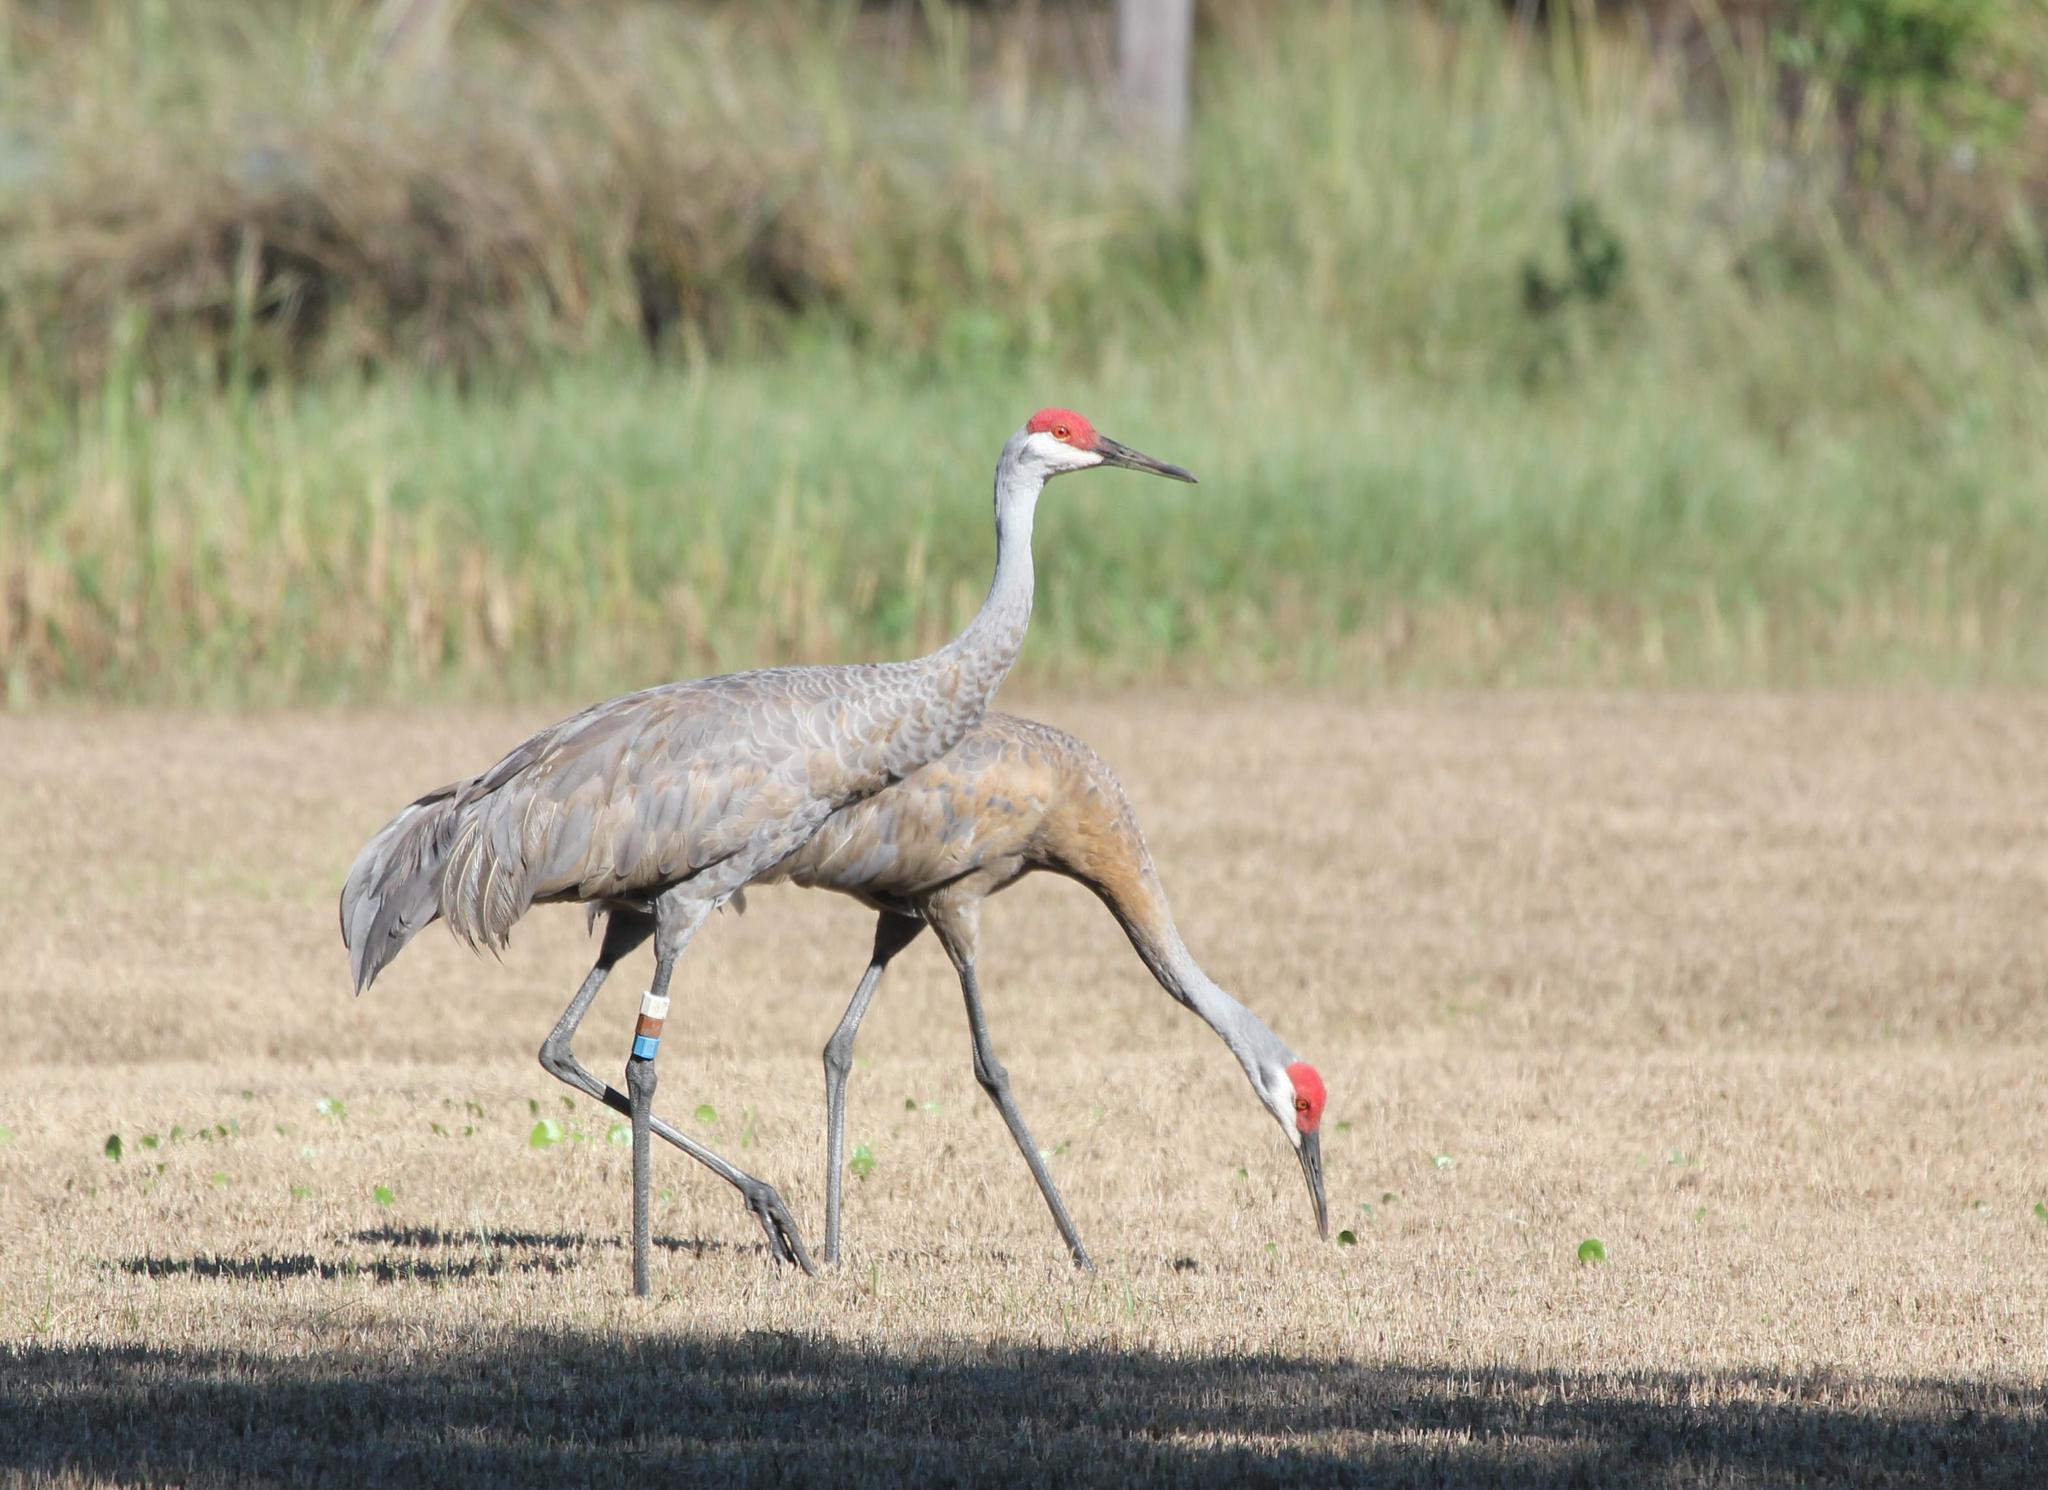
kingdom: Animalia
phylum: Chordata
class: Aves
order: Gruiformes
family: Gruidae
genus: Grus
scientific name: Grus canadensis
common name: Sandhill crane
